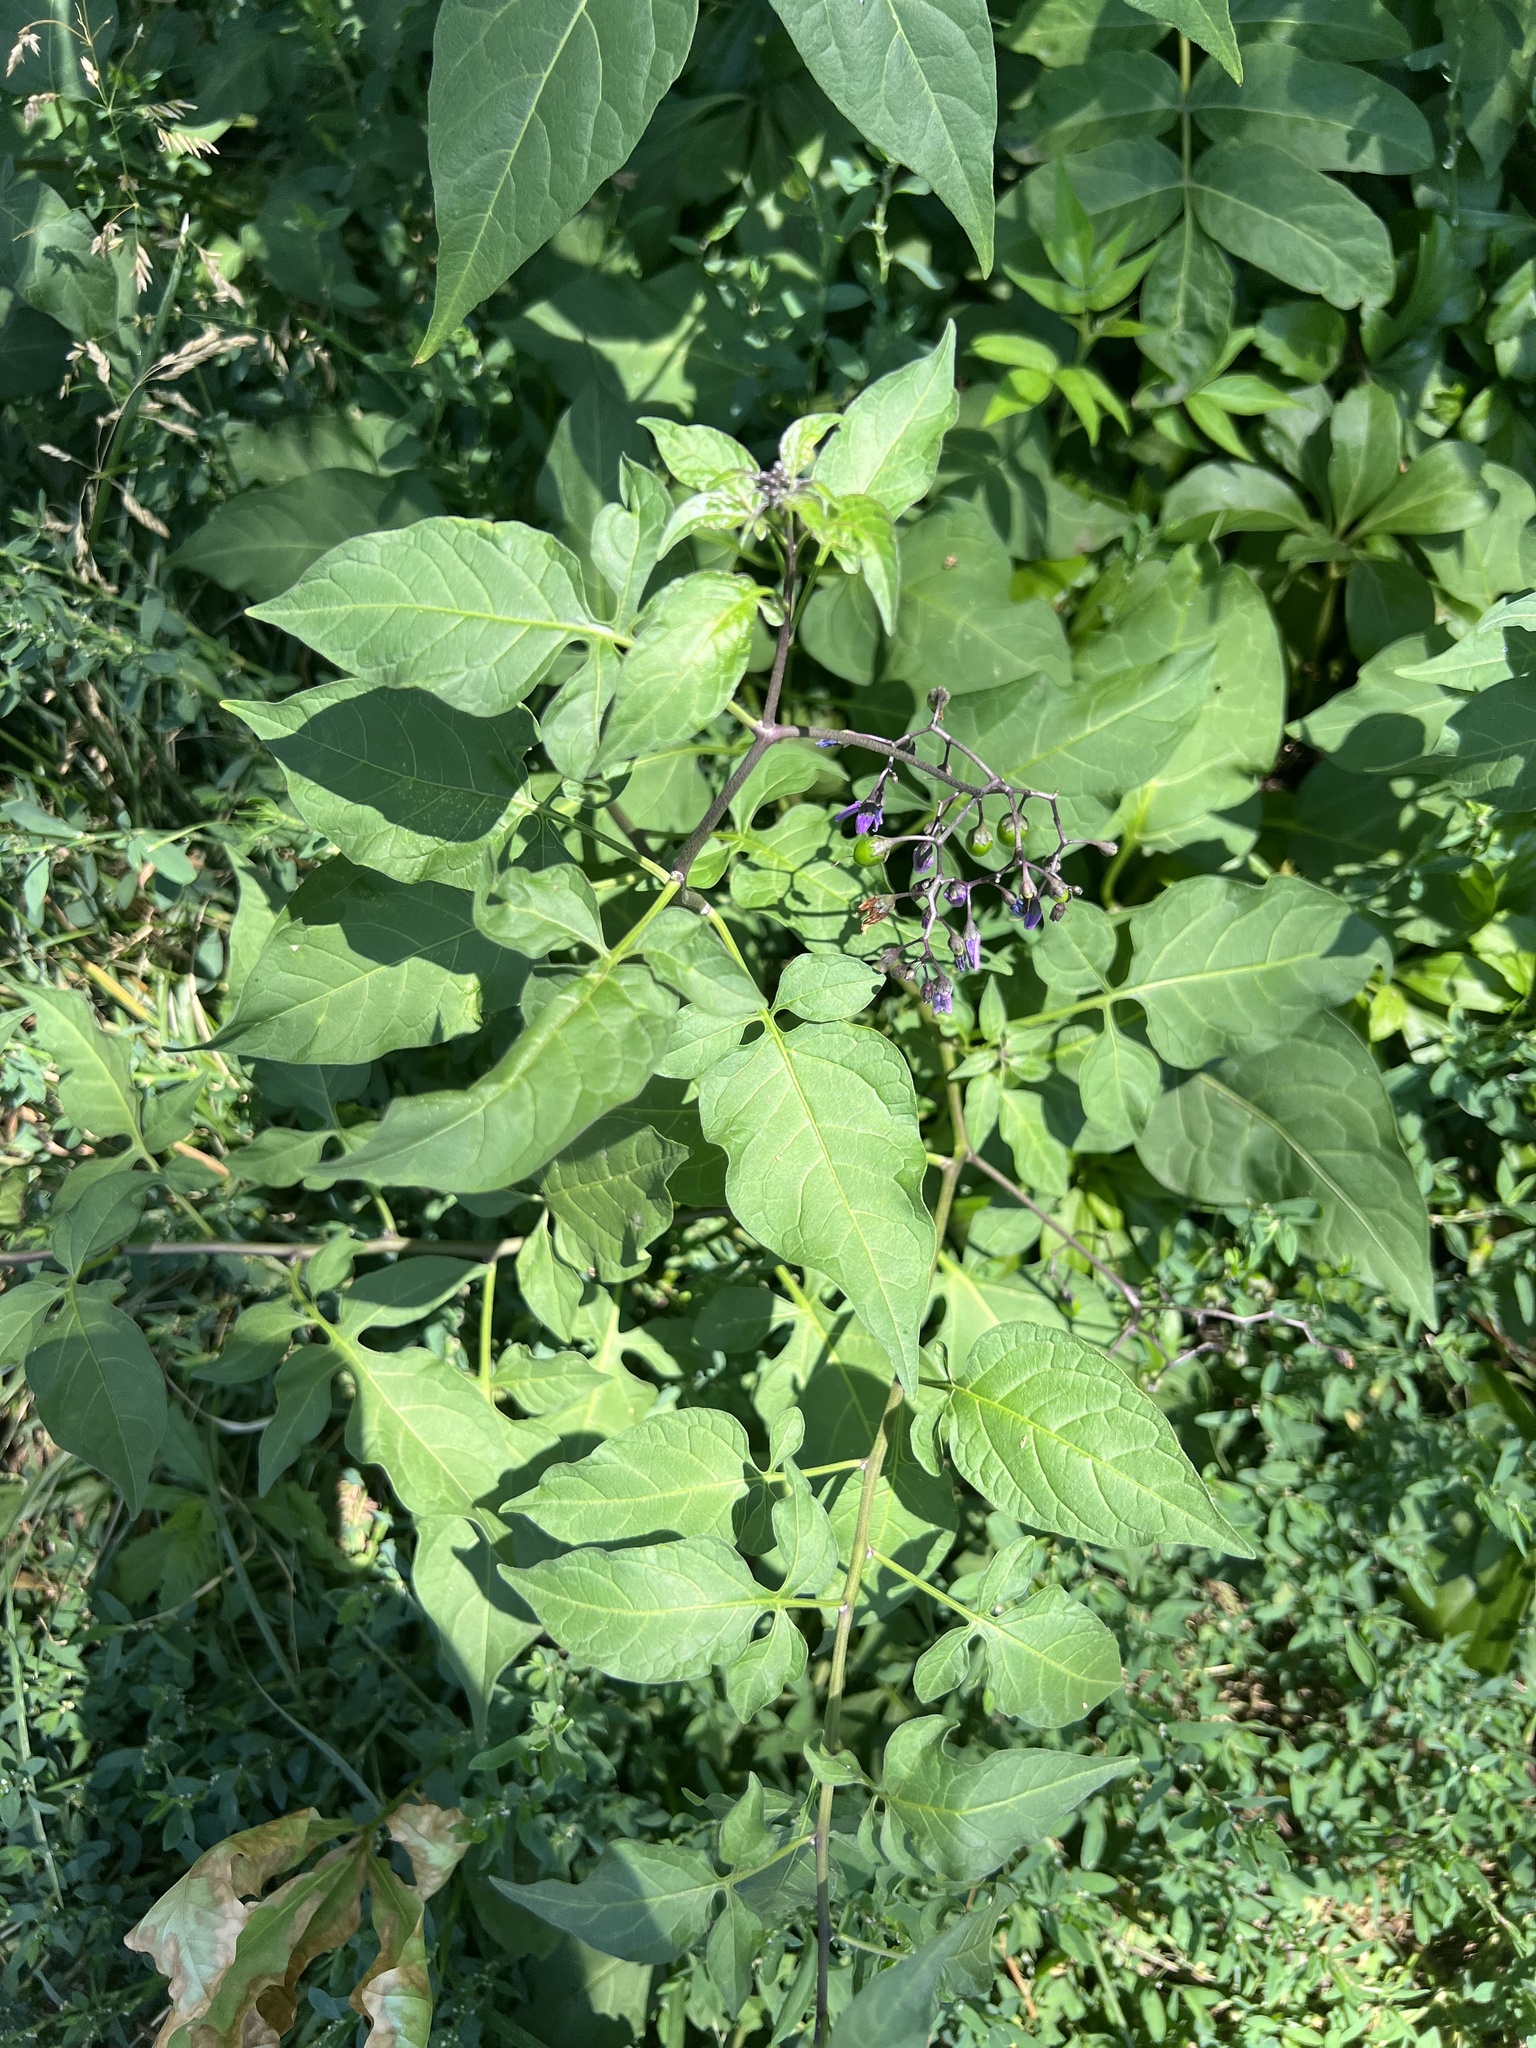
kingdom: Plantae
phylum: Tracheophyta
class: Magnoliopsida
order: Solanales
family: Solanaceae
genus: Solanum
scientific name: Solanum dulcamara
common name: Climbing nightshade
